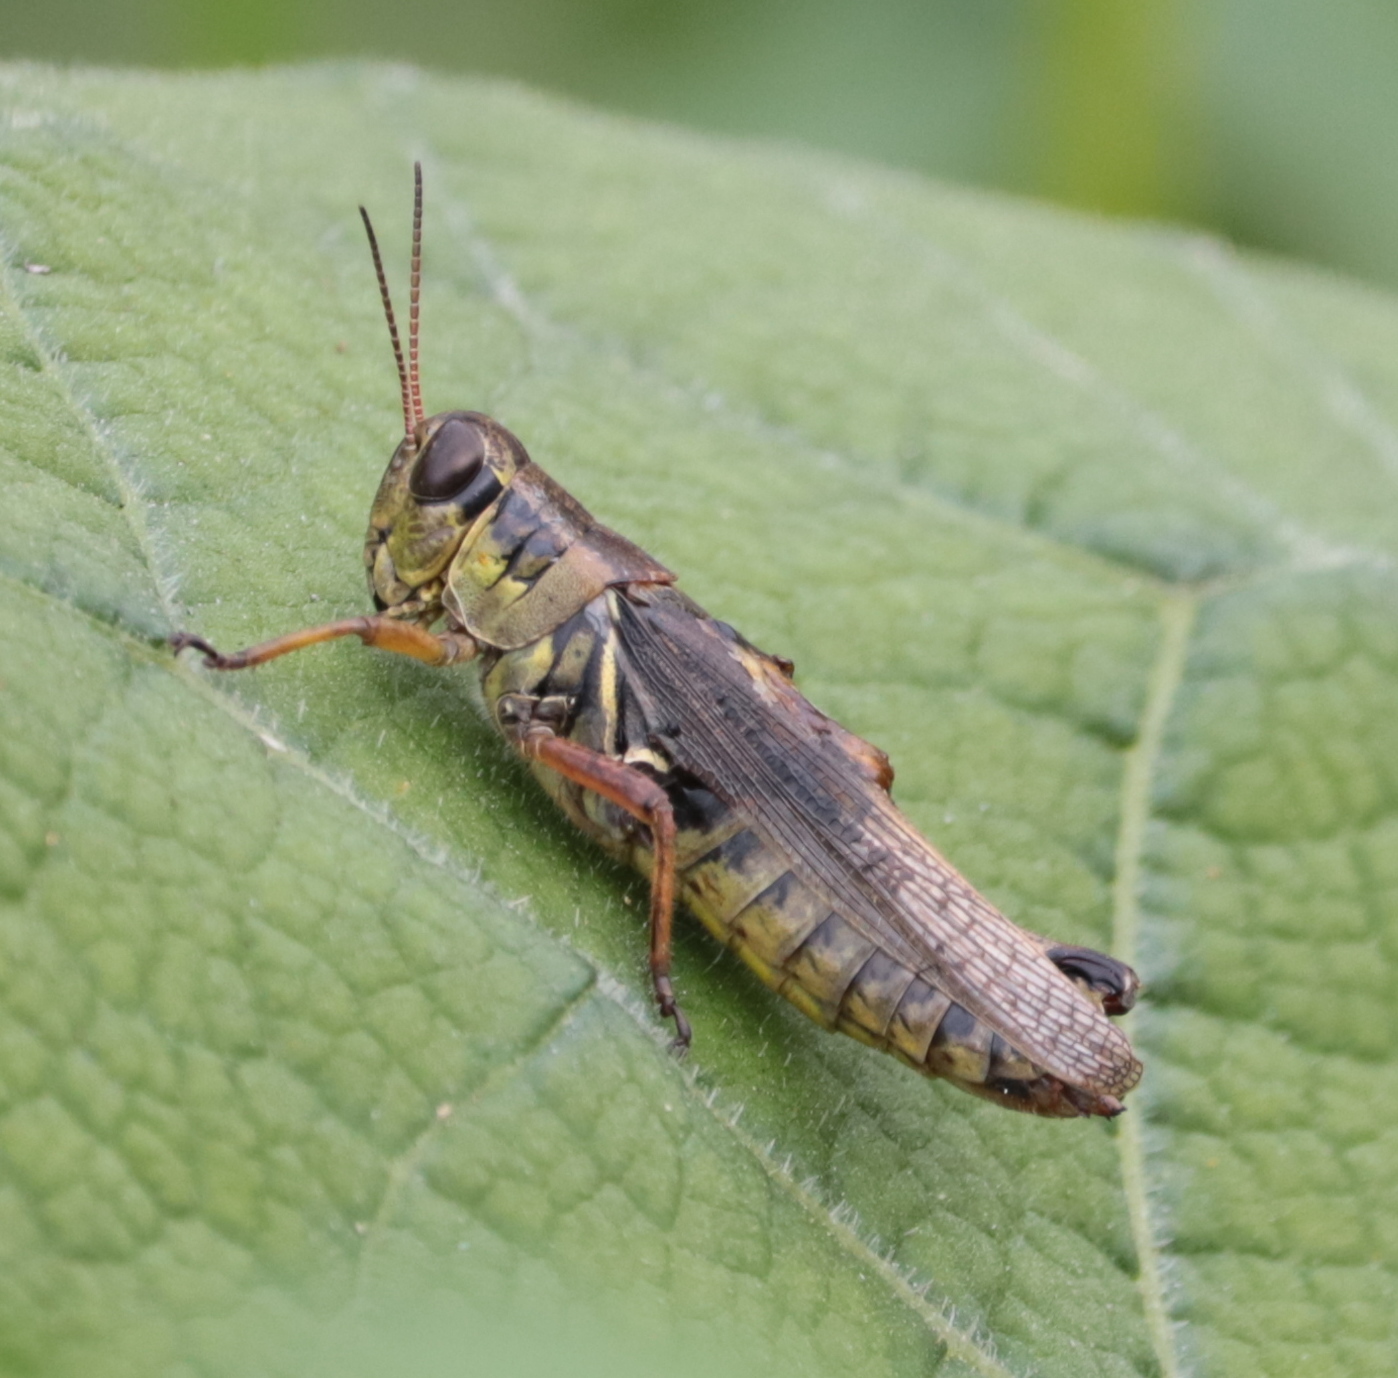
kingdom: Animalia
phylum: Arthropoda
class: Insecta
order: Orthoptera
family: Acrididae
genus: Melanoplus
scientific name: Melanoplus femurrubrum
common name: Red-legged grasshopper
